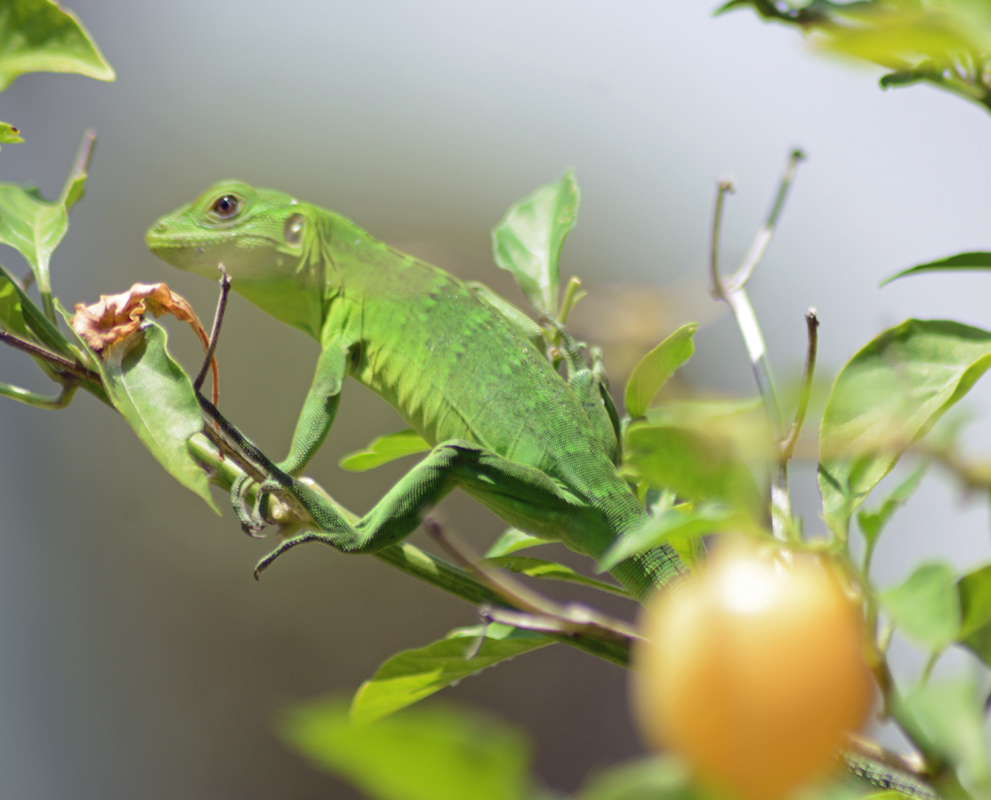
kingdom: Animalia
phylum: Chordata
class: Squamata
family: Iguanidae
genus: Ctenosaura
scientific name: Ctenosaura pectinata
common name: Guerreran spiny-tailed iguana
